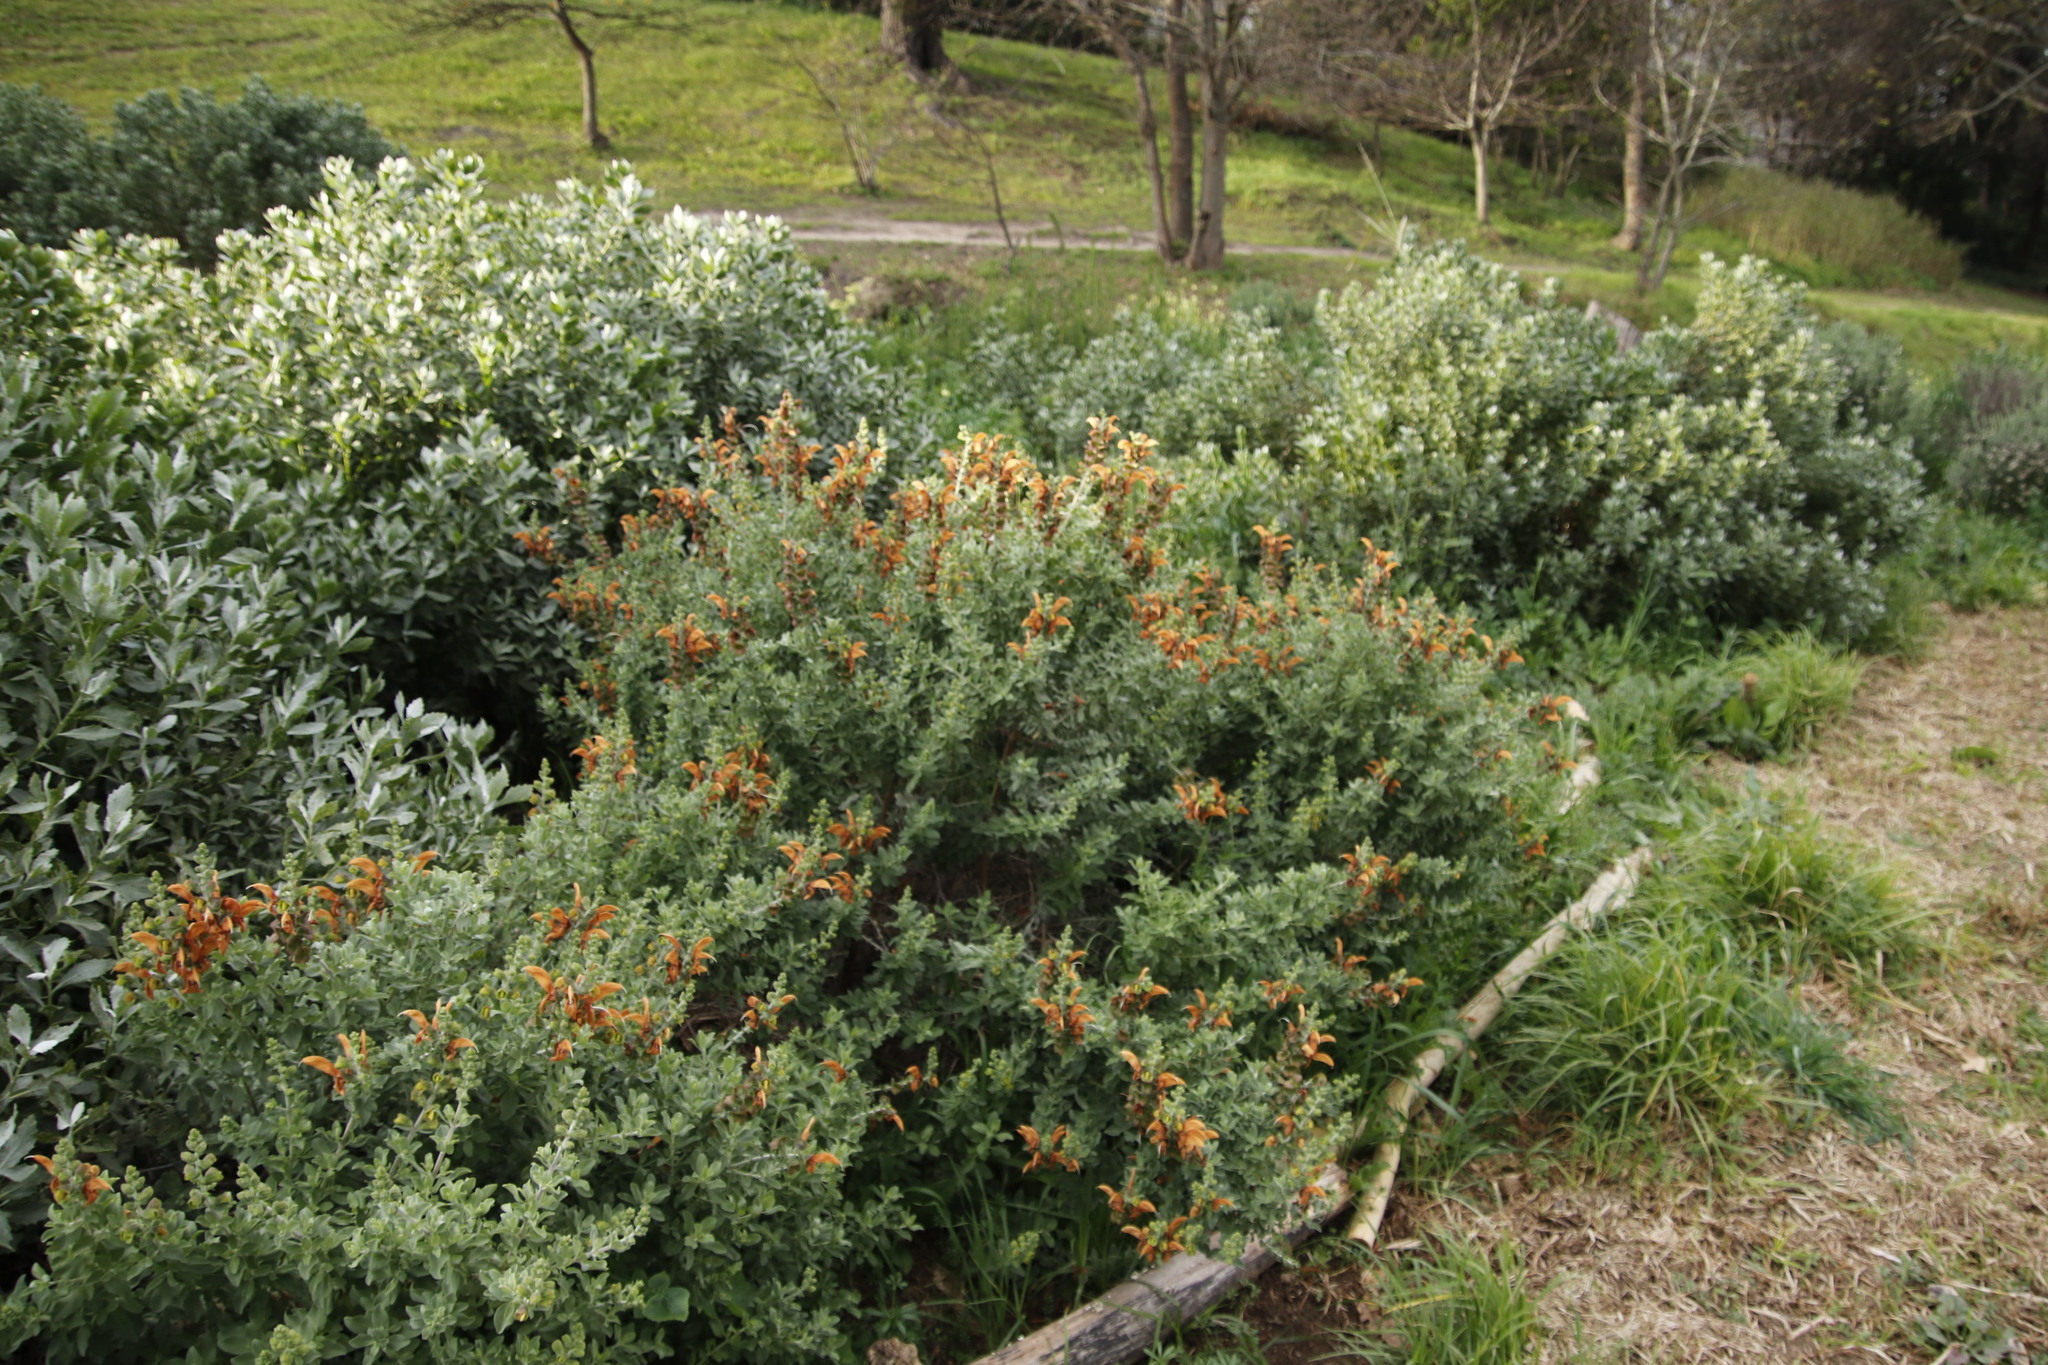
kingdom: Plantae
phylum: Tracheophyta
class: Magnoliopsida
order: Lamiales
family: Lamiaceae
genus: Salvia
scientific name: Salvia aurea
